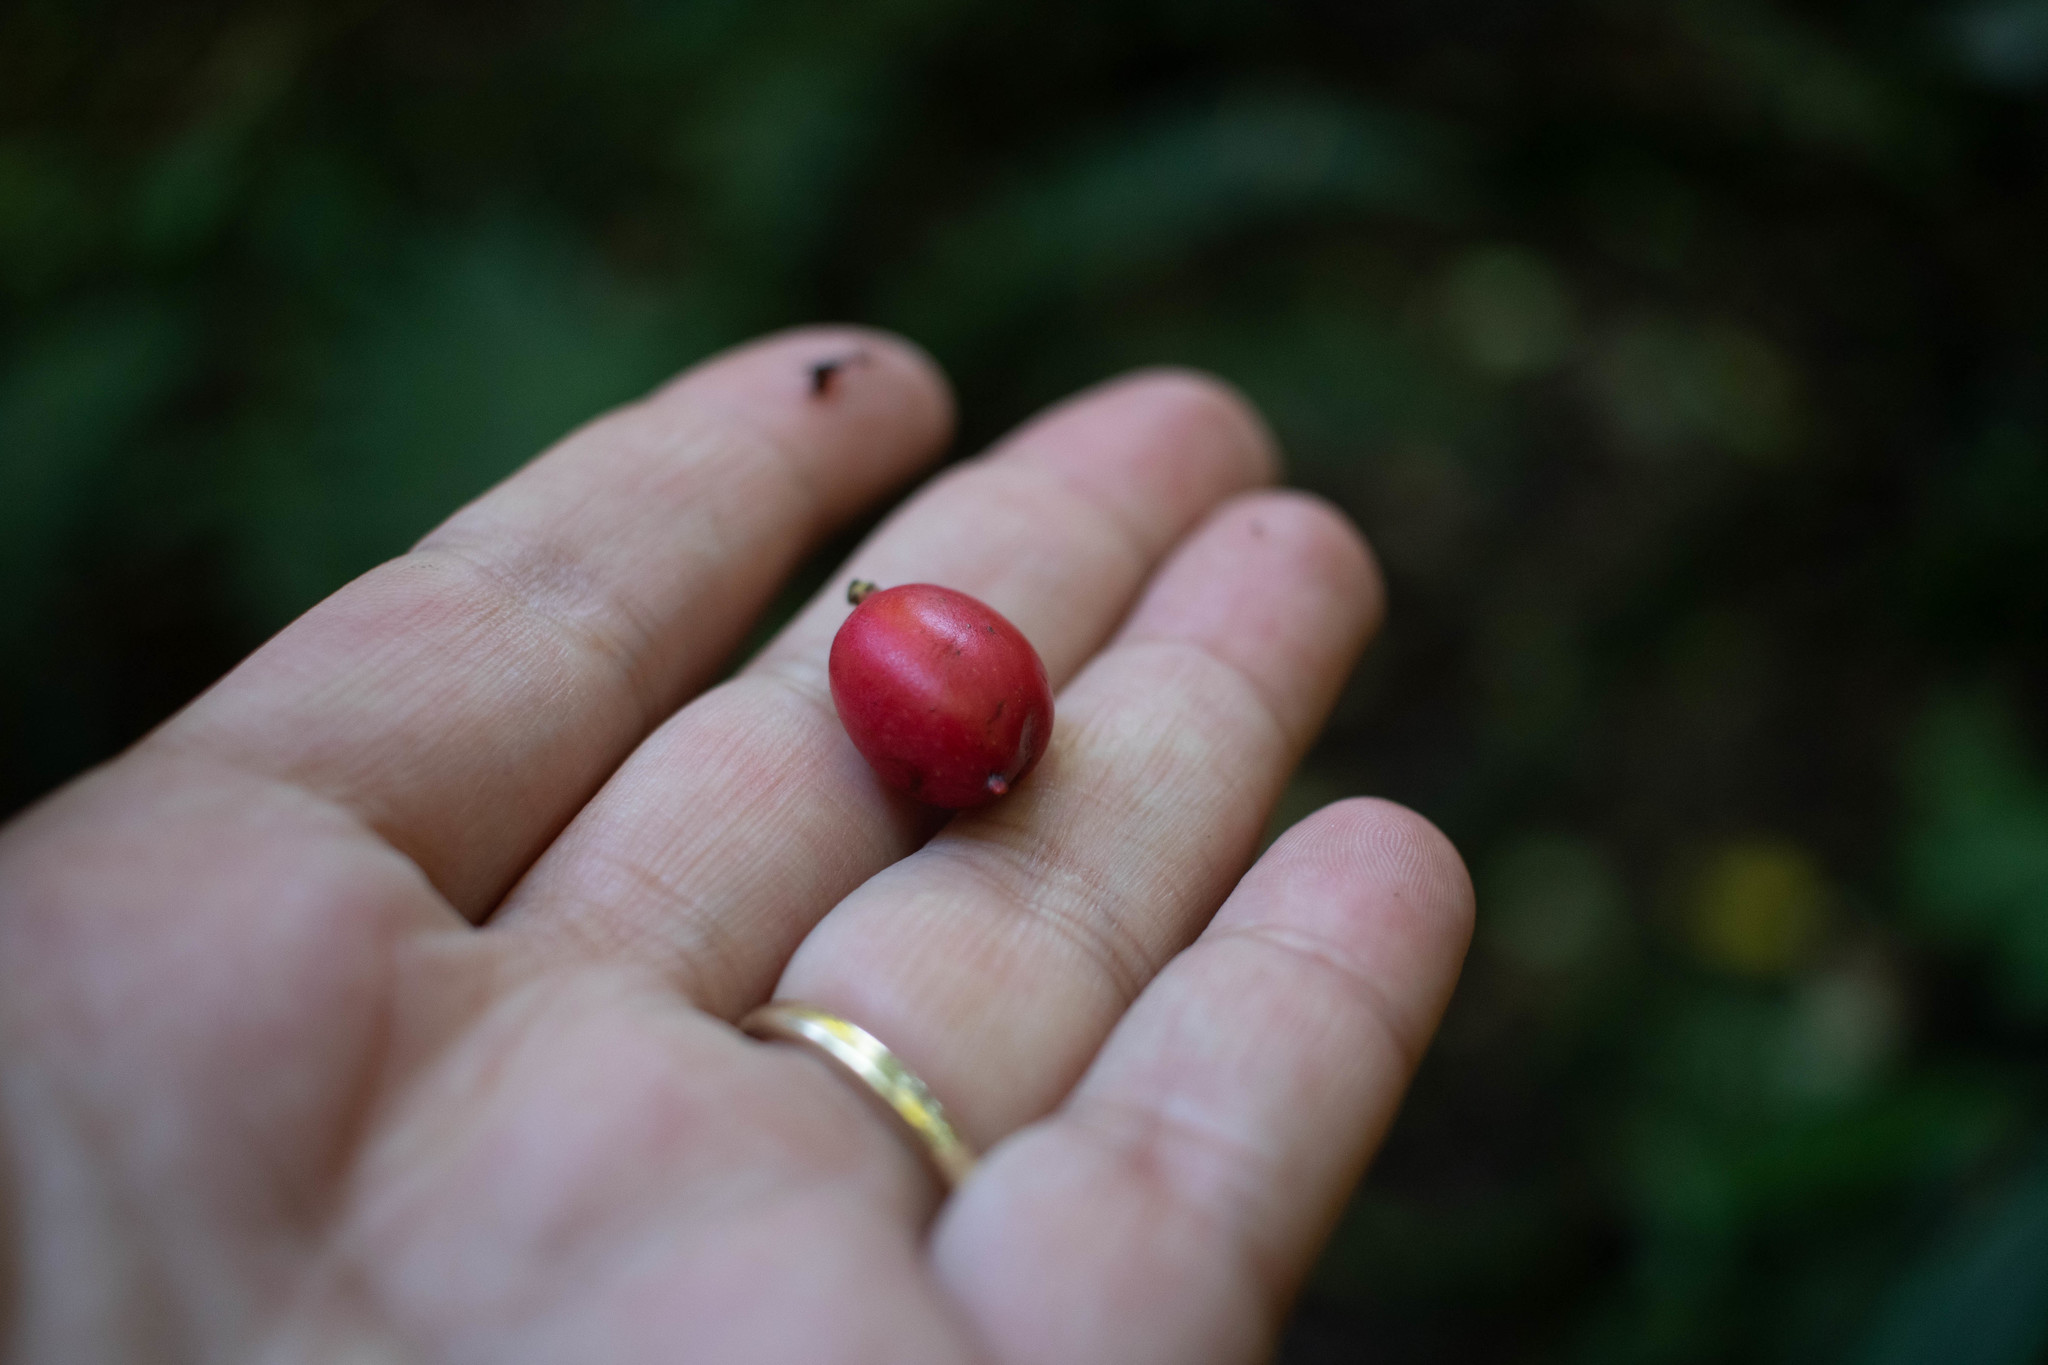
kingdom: Plantae
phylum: Tracheophyta
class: Pinopsida
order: Pinales
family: Podocarpaceae
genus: Prumnopitys
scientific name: Prumnopitys ferruginea
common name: Brown pine
